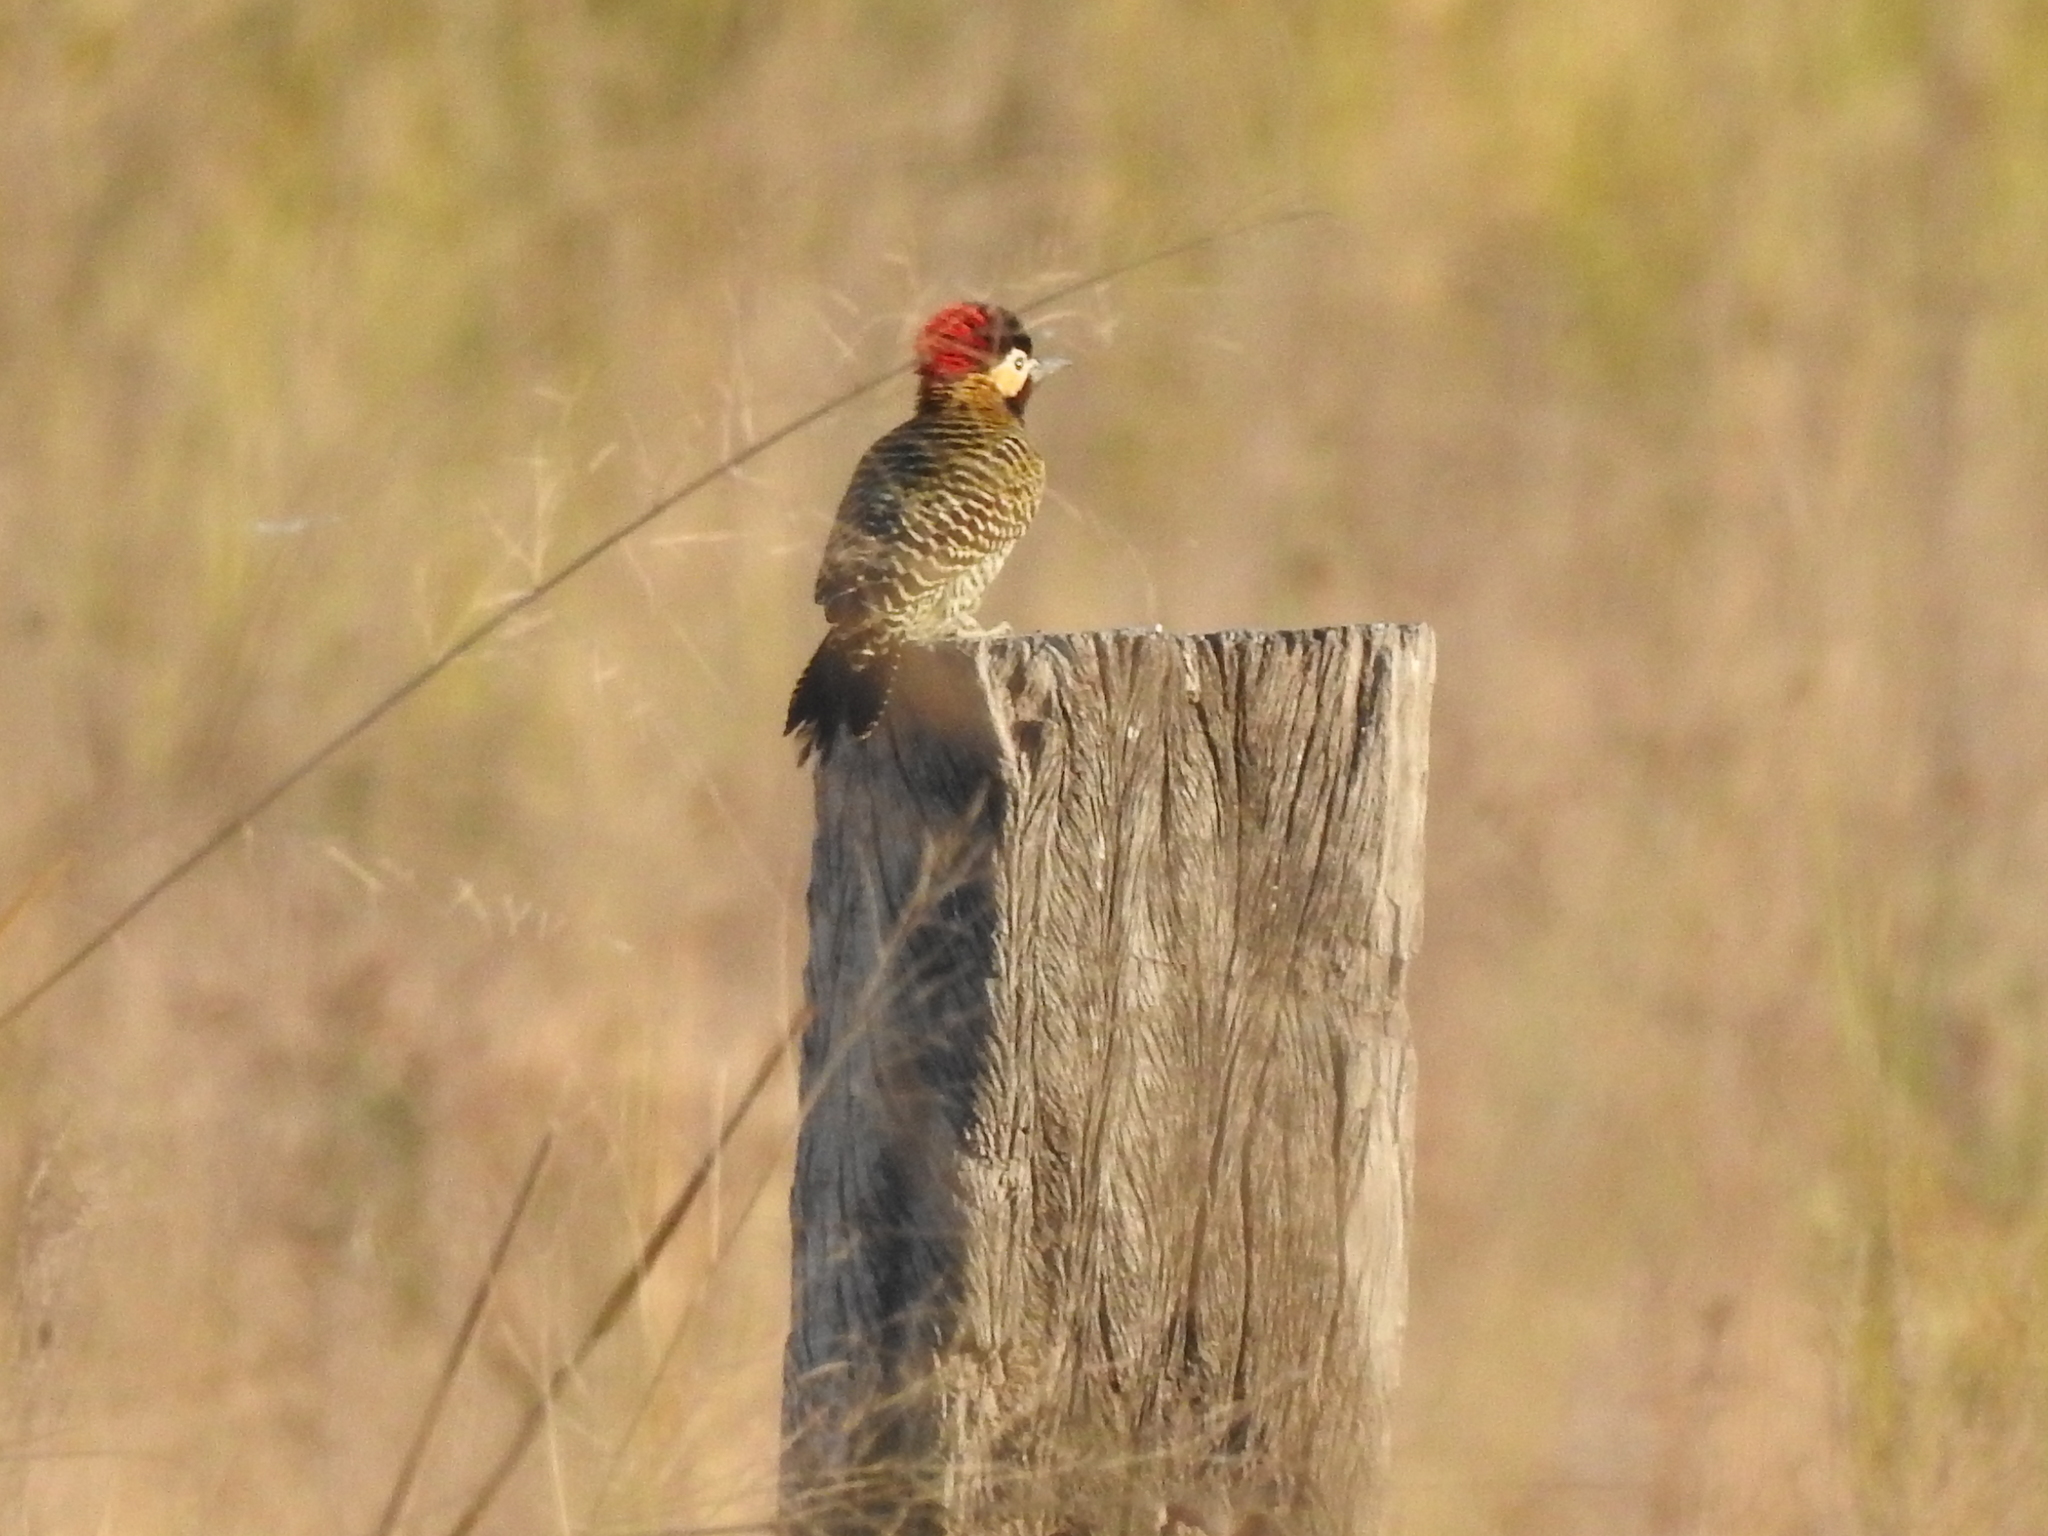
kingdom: Animalia
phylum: Chordata
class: Aves
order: Piciformes
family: Picidae
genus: Colaptes
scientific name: Colaptes melanochloros
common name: Green-barred woodpecker
